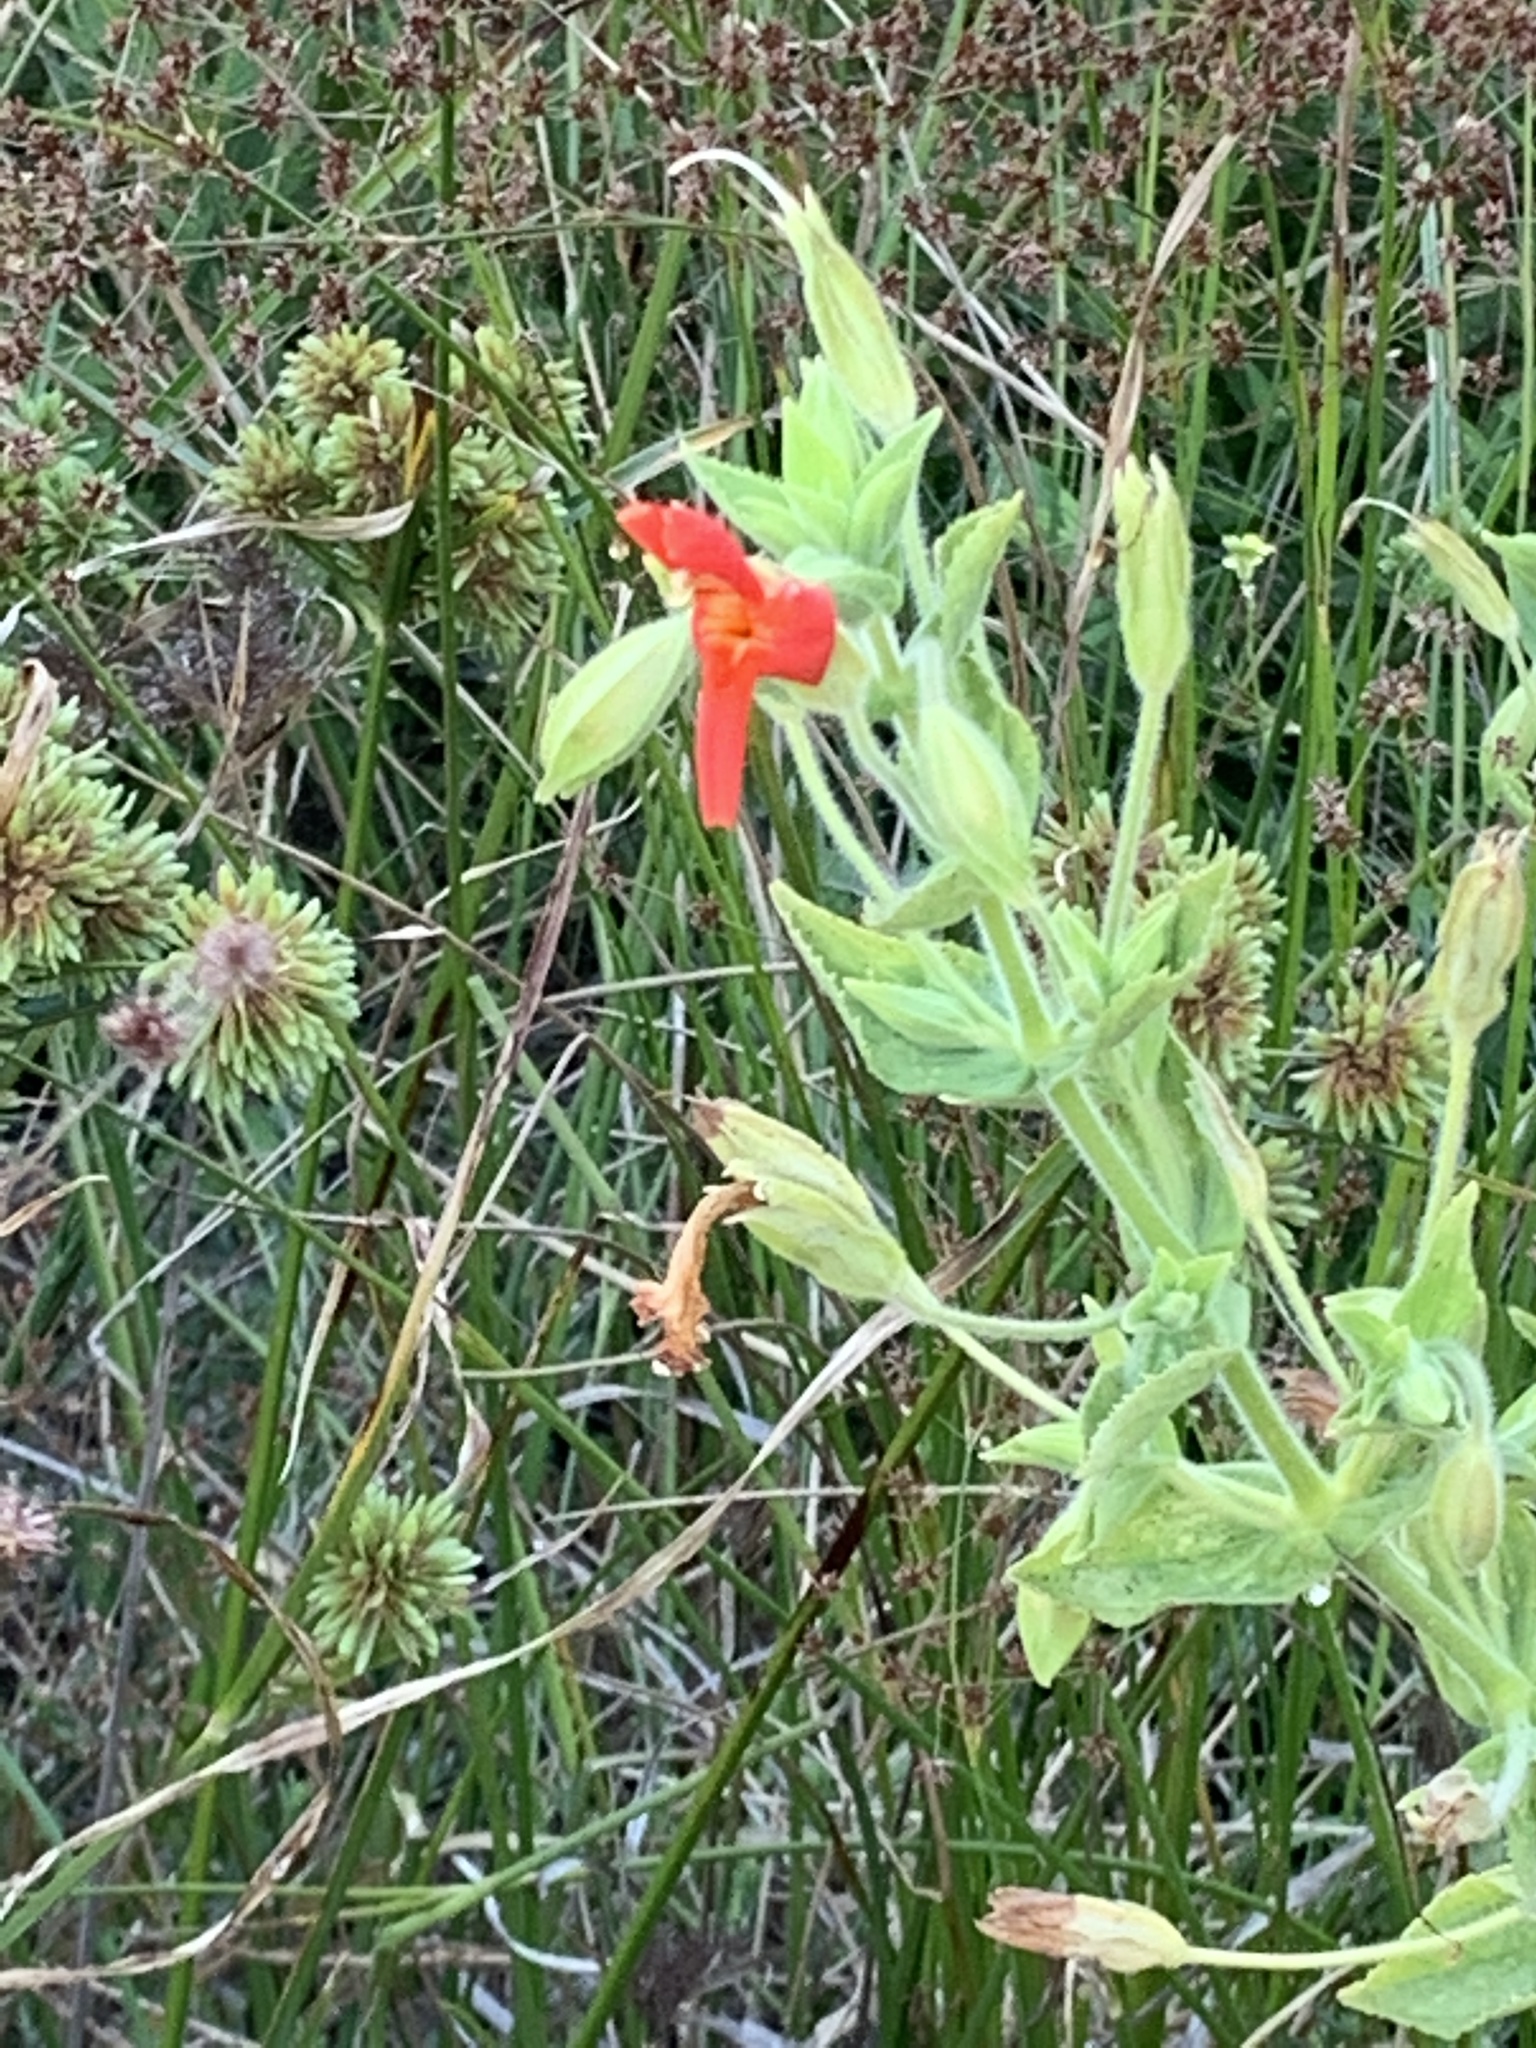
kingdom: Plantae
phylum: Tracheophyta
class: Magnoliopsida
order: Lamiales
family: Phrymaceae
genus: Erythranthe
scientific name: Erythranthe cardinalis
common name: Scarlet monkey-flower
